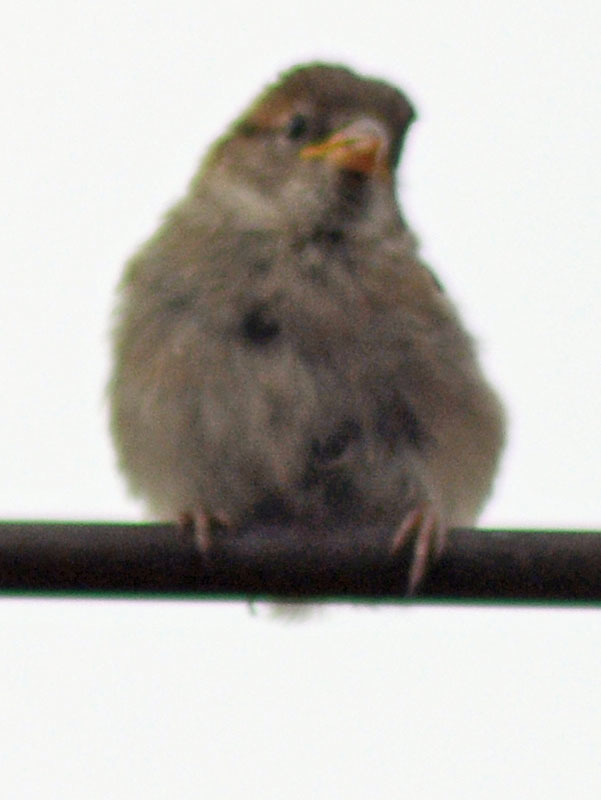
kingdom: Animalia
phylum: Chordata
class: Aves
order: Passeriformes
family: Passeridae
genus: Passer
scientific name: Passer domesticus
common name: House sparrow
